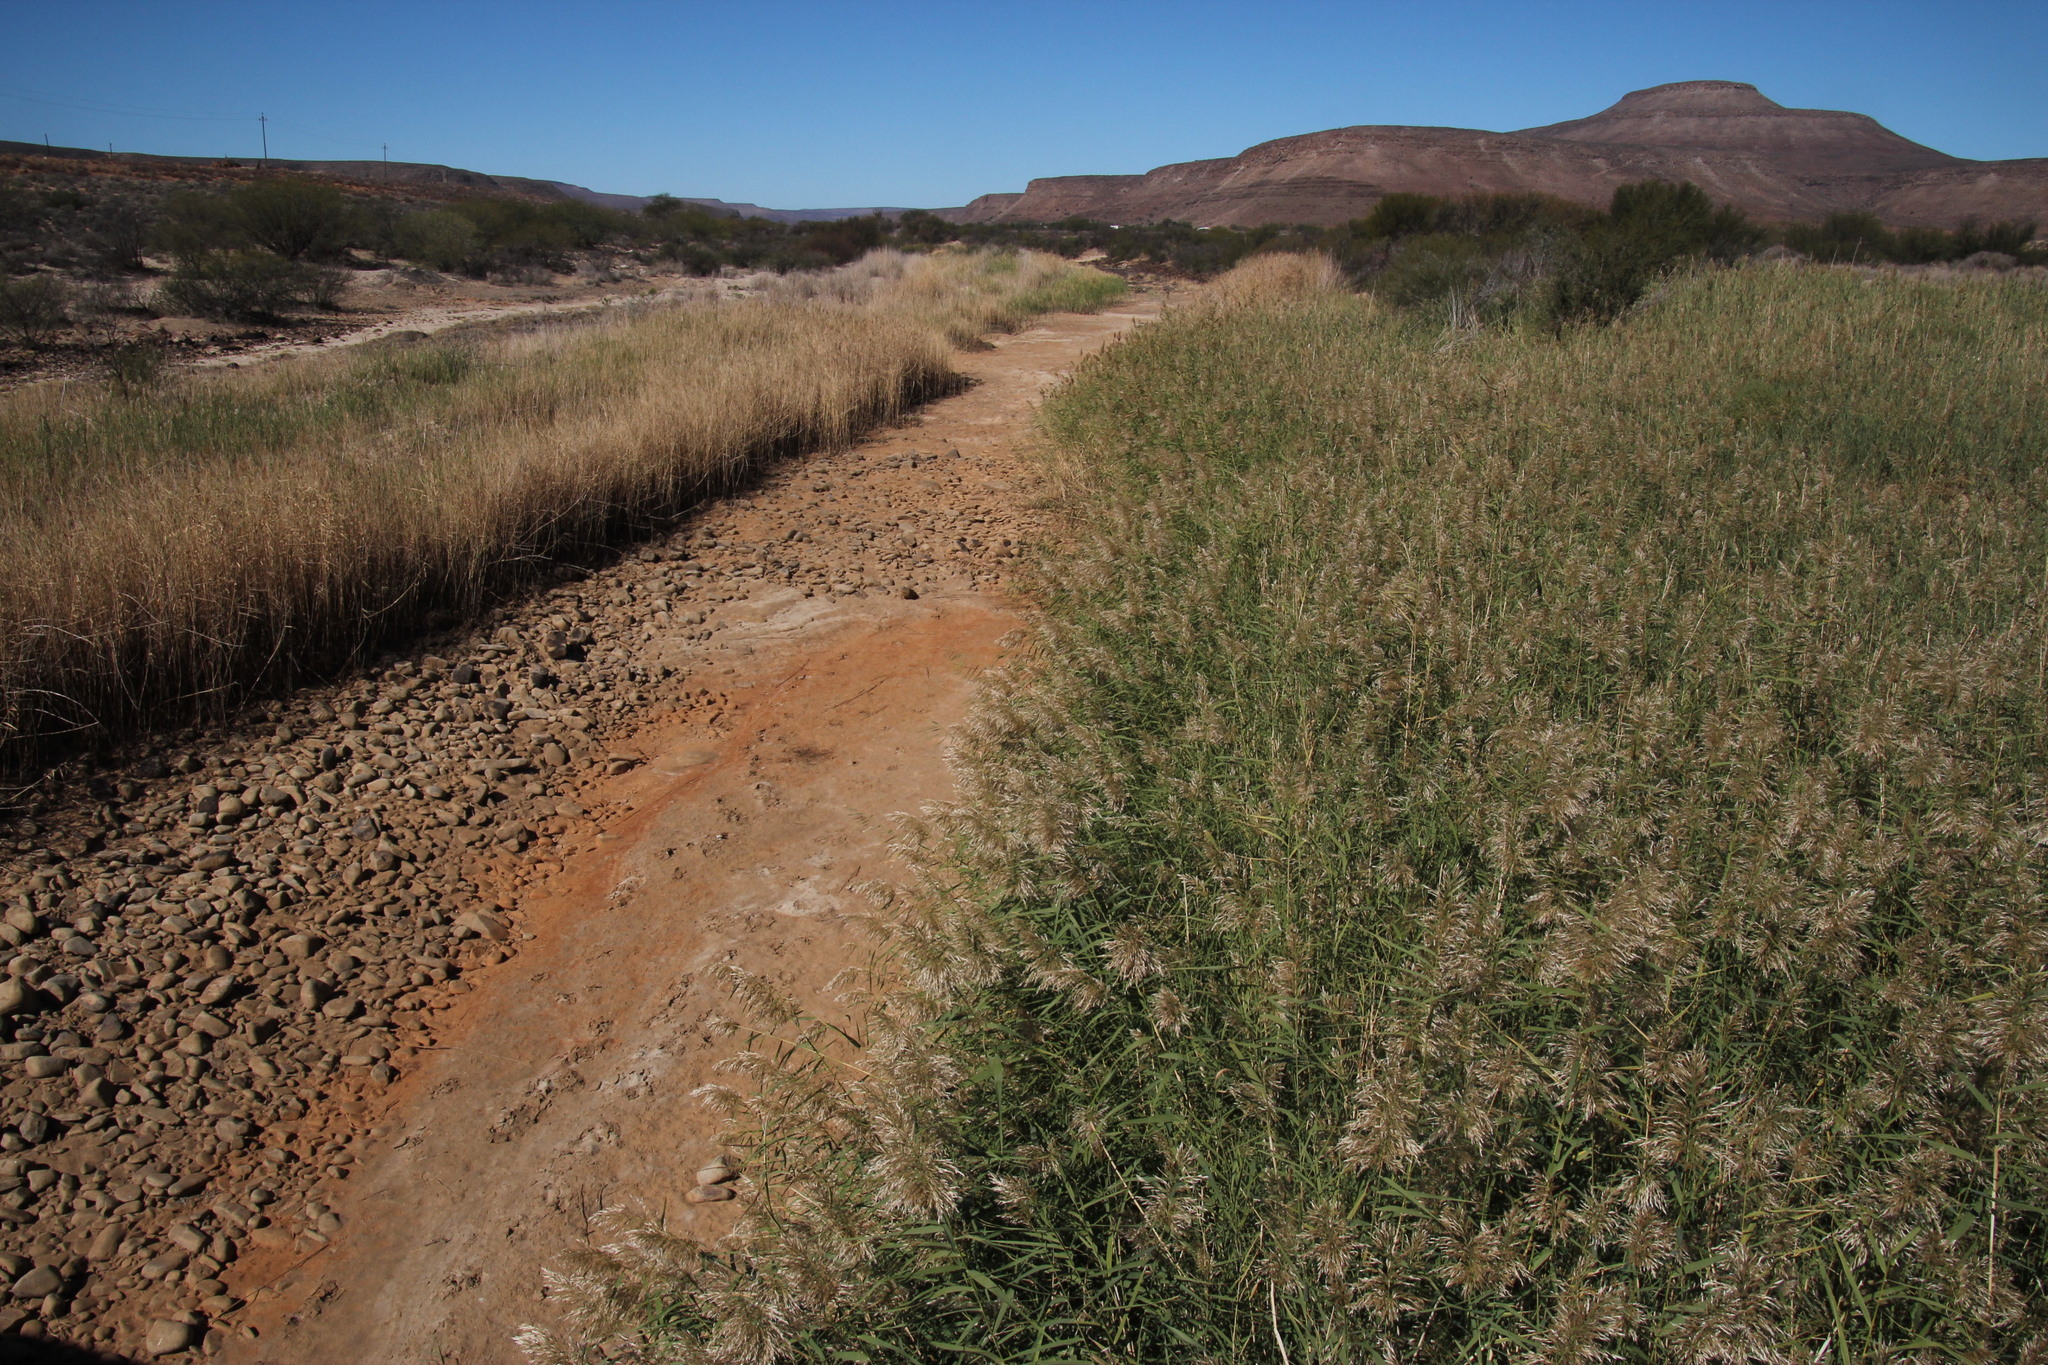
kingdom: Plantae
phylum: Tracheophyta
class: Liliopsida
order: Poales
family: Poaceae
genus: Phragmites
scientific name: Phragmites australis
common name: Common reed
